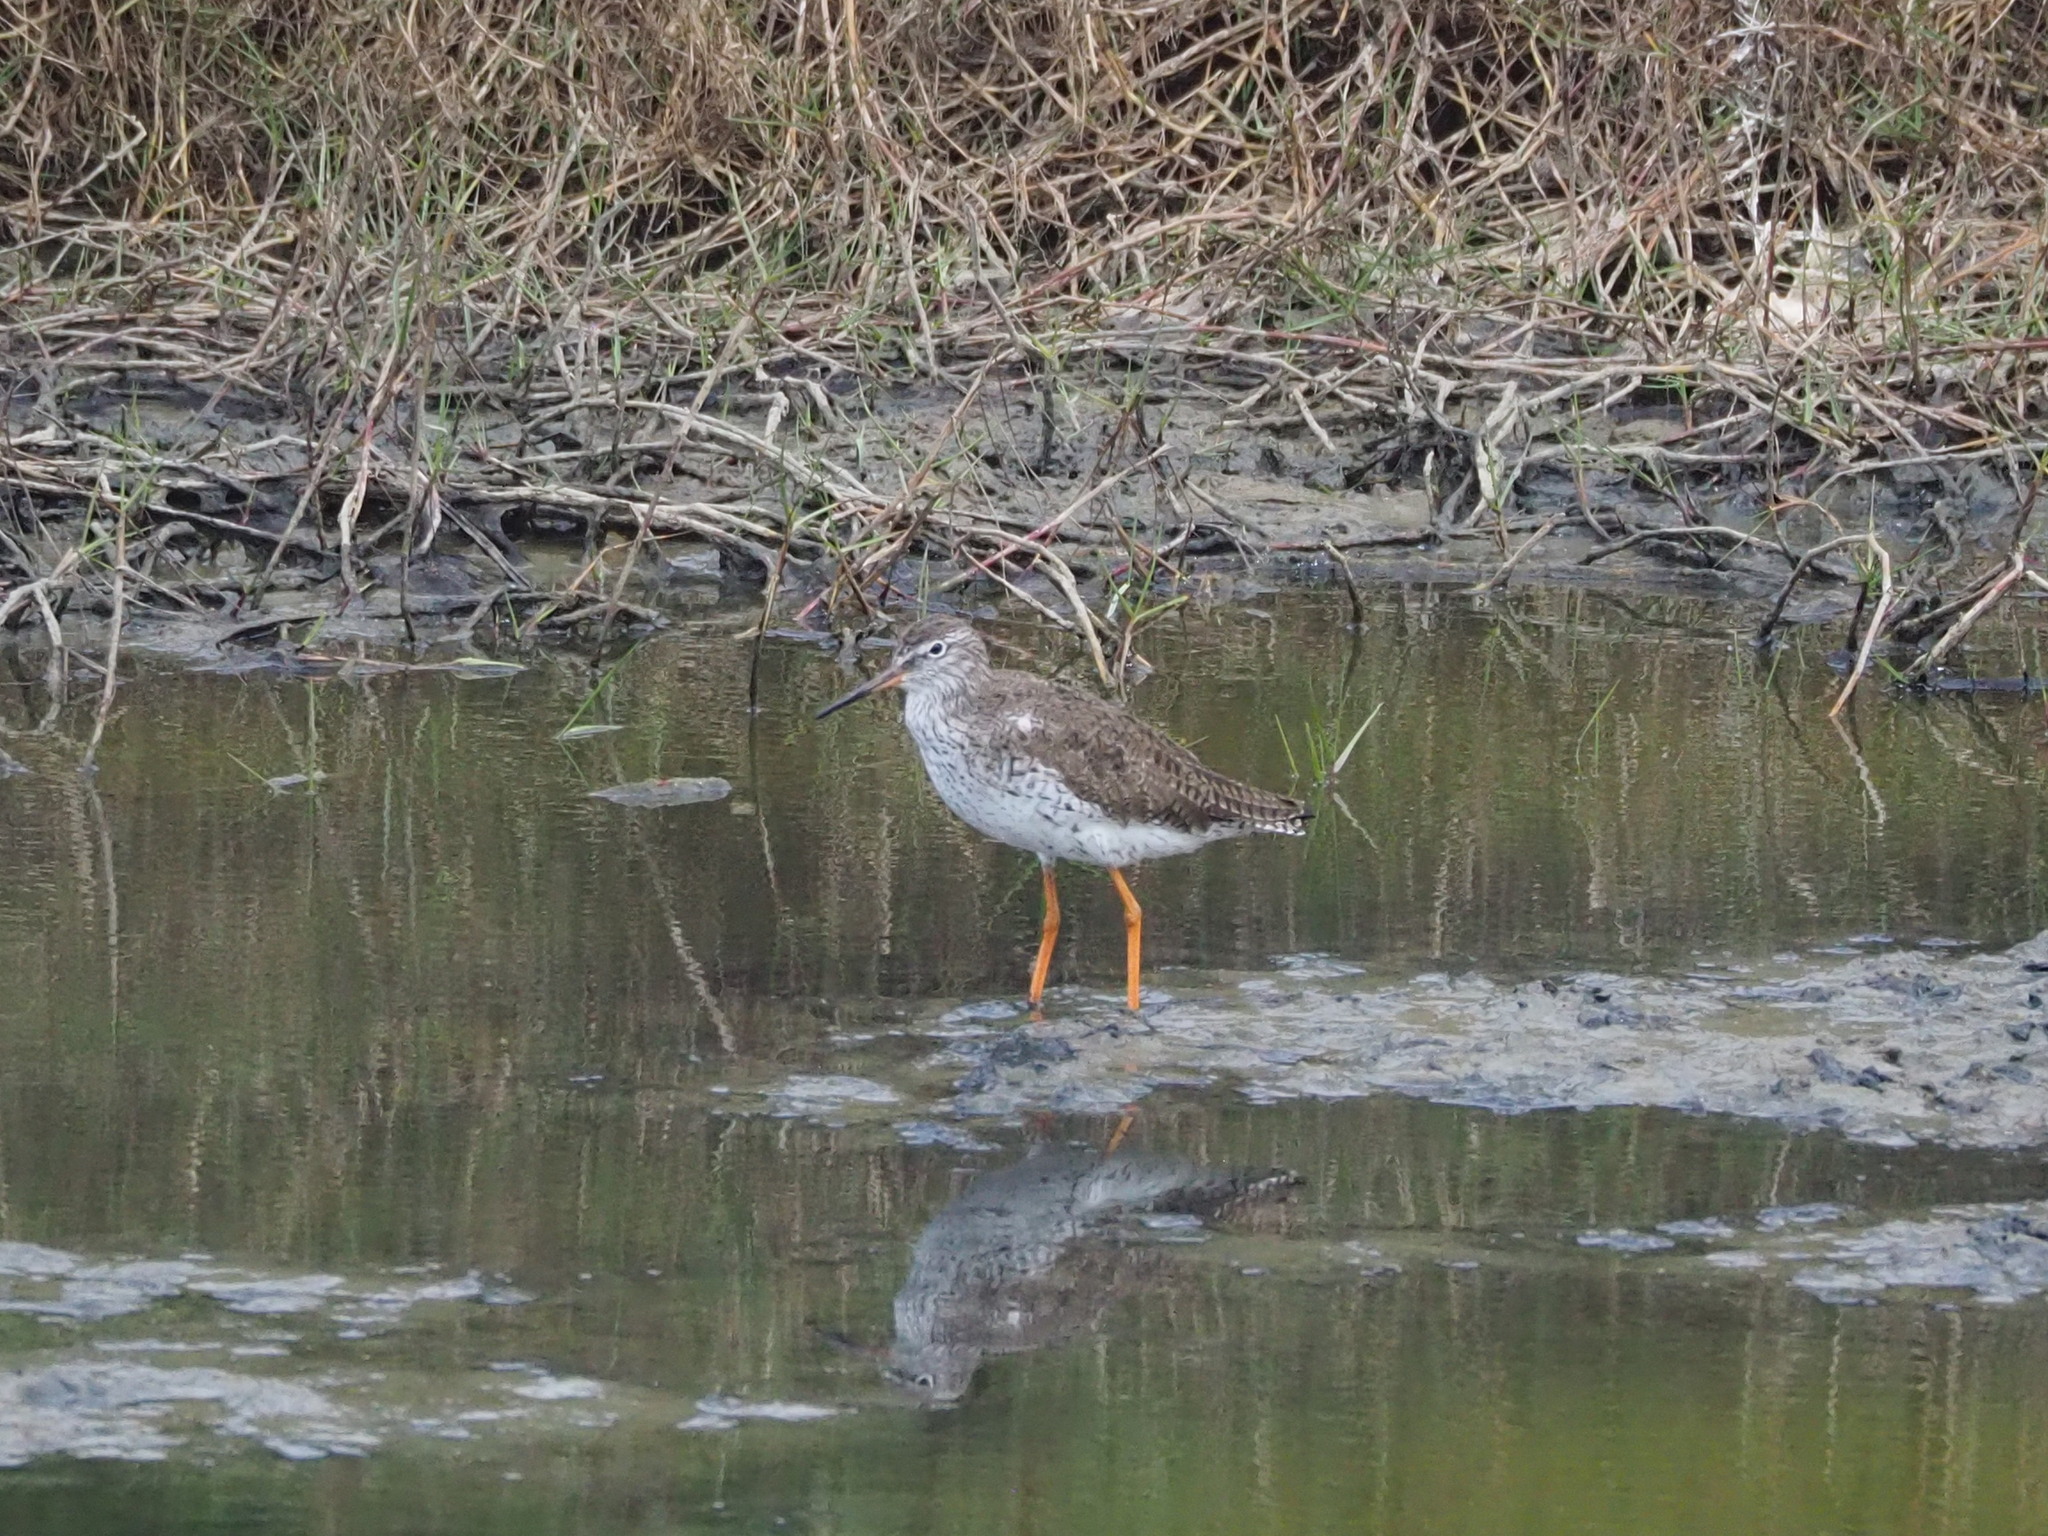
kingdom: Animalia
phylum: Chordata
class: Aves
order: Charadriiformes
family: Scolopacidae
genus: Tringa
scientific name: Tringa totanus
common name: Common redshank
